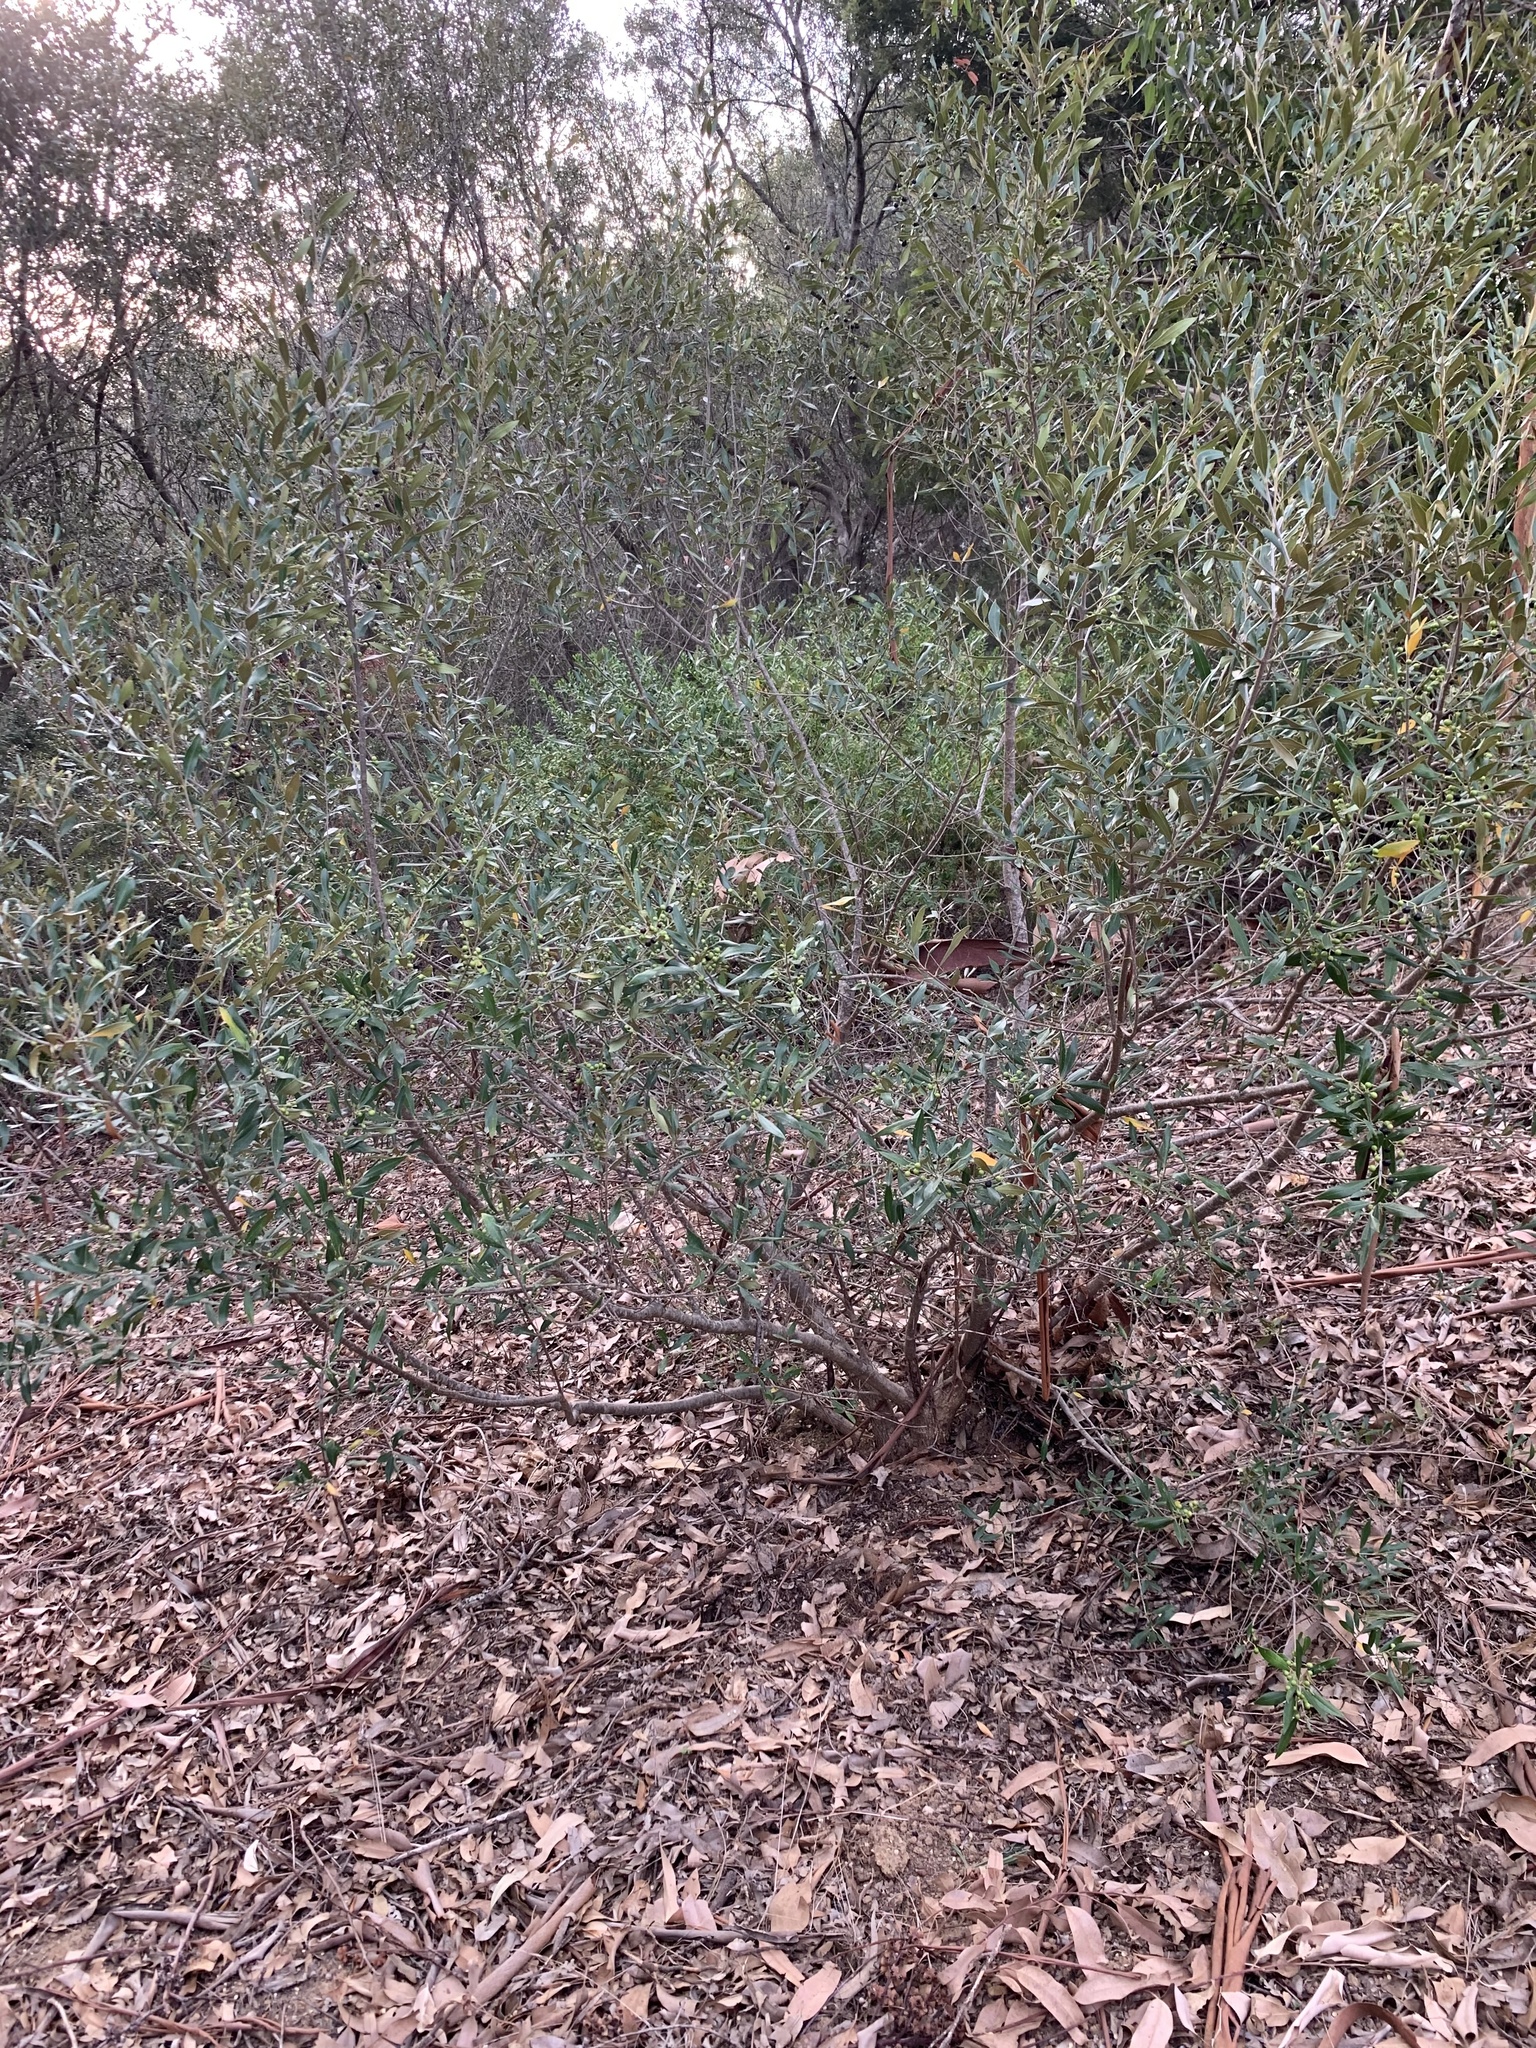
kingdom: Plantae
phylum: Tracheophyta
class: Magnoliopsida
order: Lamiales
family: Oleaceae
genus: Olea
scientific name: Olea europaea
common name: Olive
